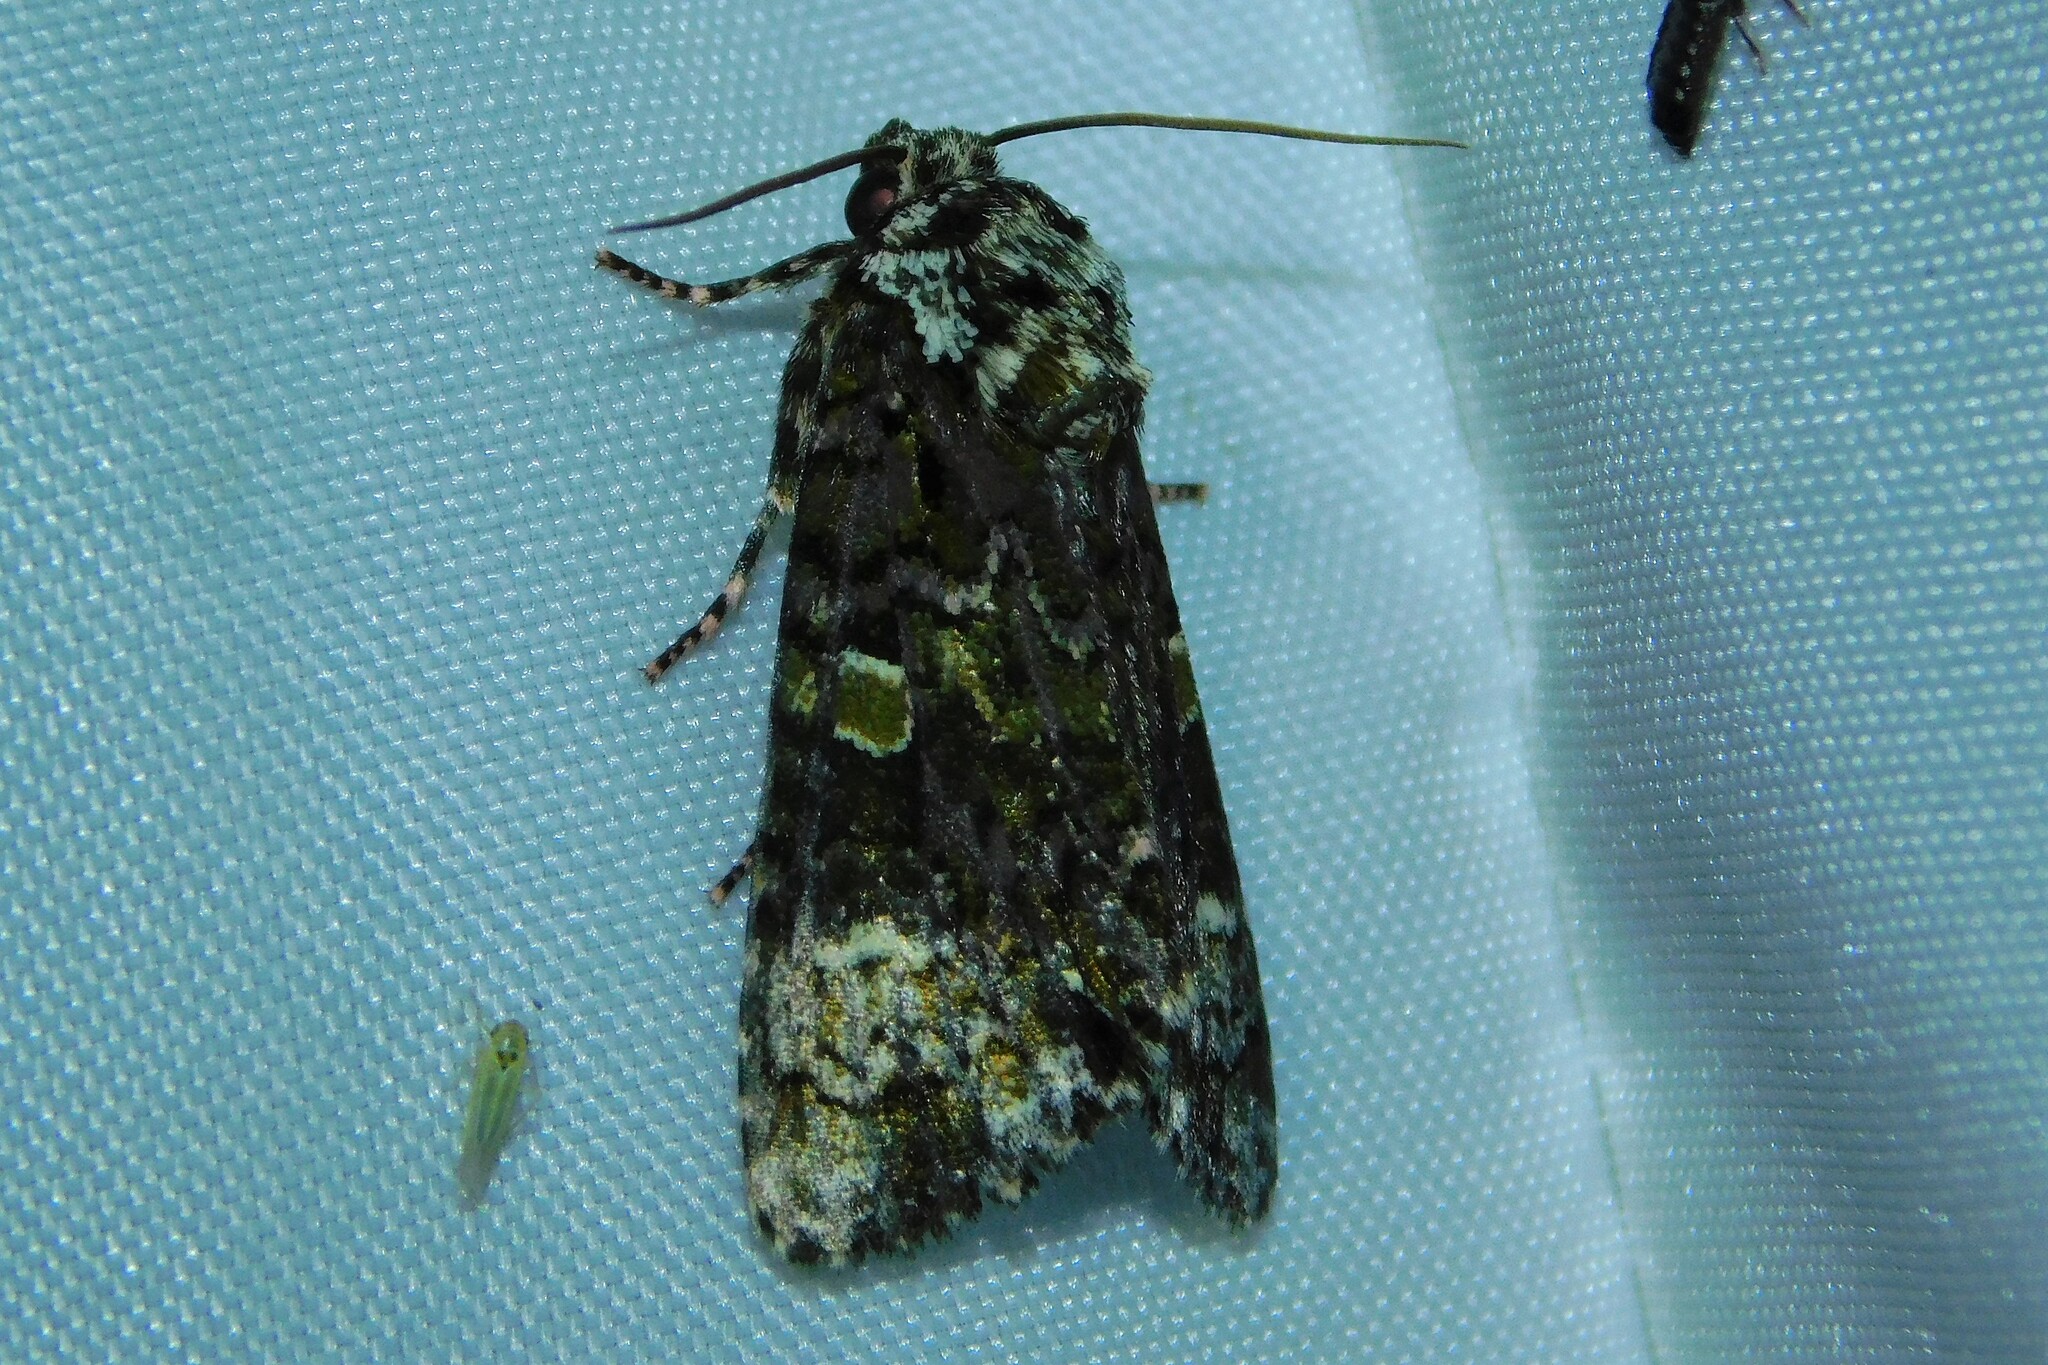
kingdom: Animalia
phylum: Arthropoda
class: Insecta
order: Lepidoptera
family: Noctuidae
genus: Craniophora
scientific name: Craniophora ligustri
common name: Coronet
